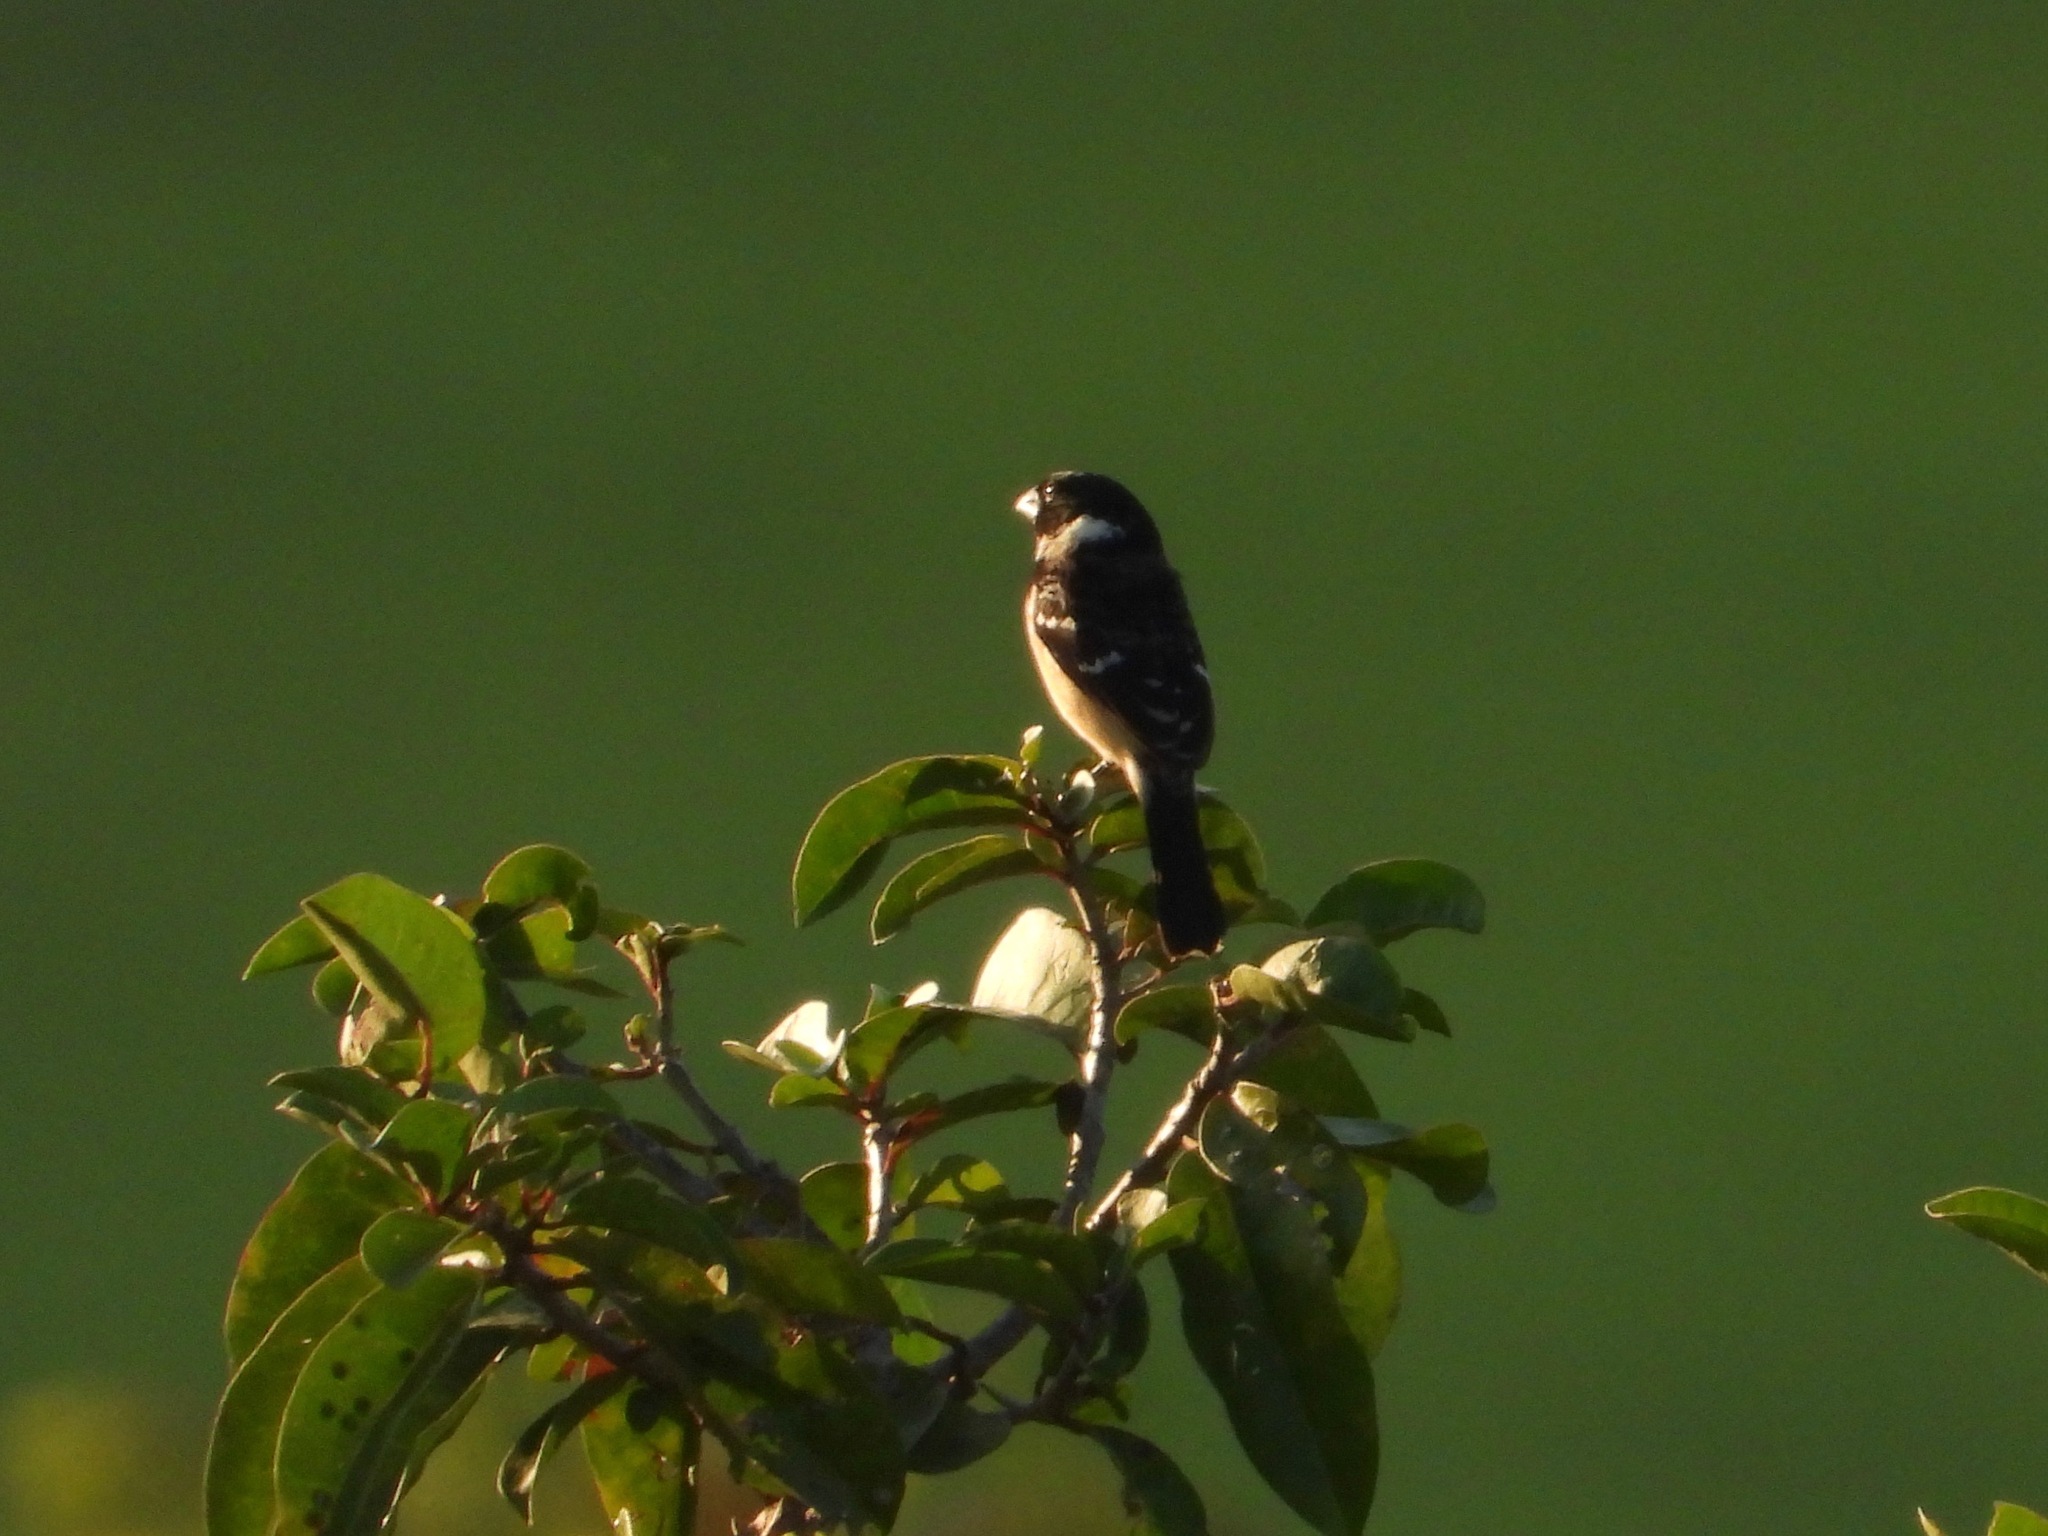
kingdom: Animalia
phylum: Chordata
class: Aves
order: Passeriformes
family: Thraupidae
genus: Sporophila
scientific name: Sporophila morelleti
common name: Morelet's seedeater
